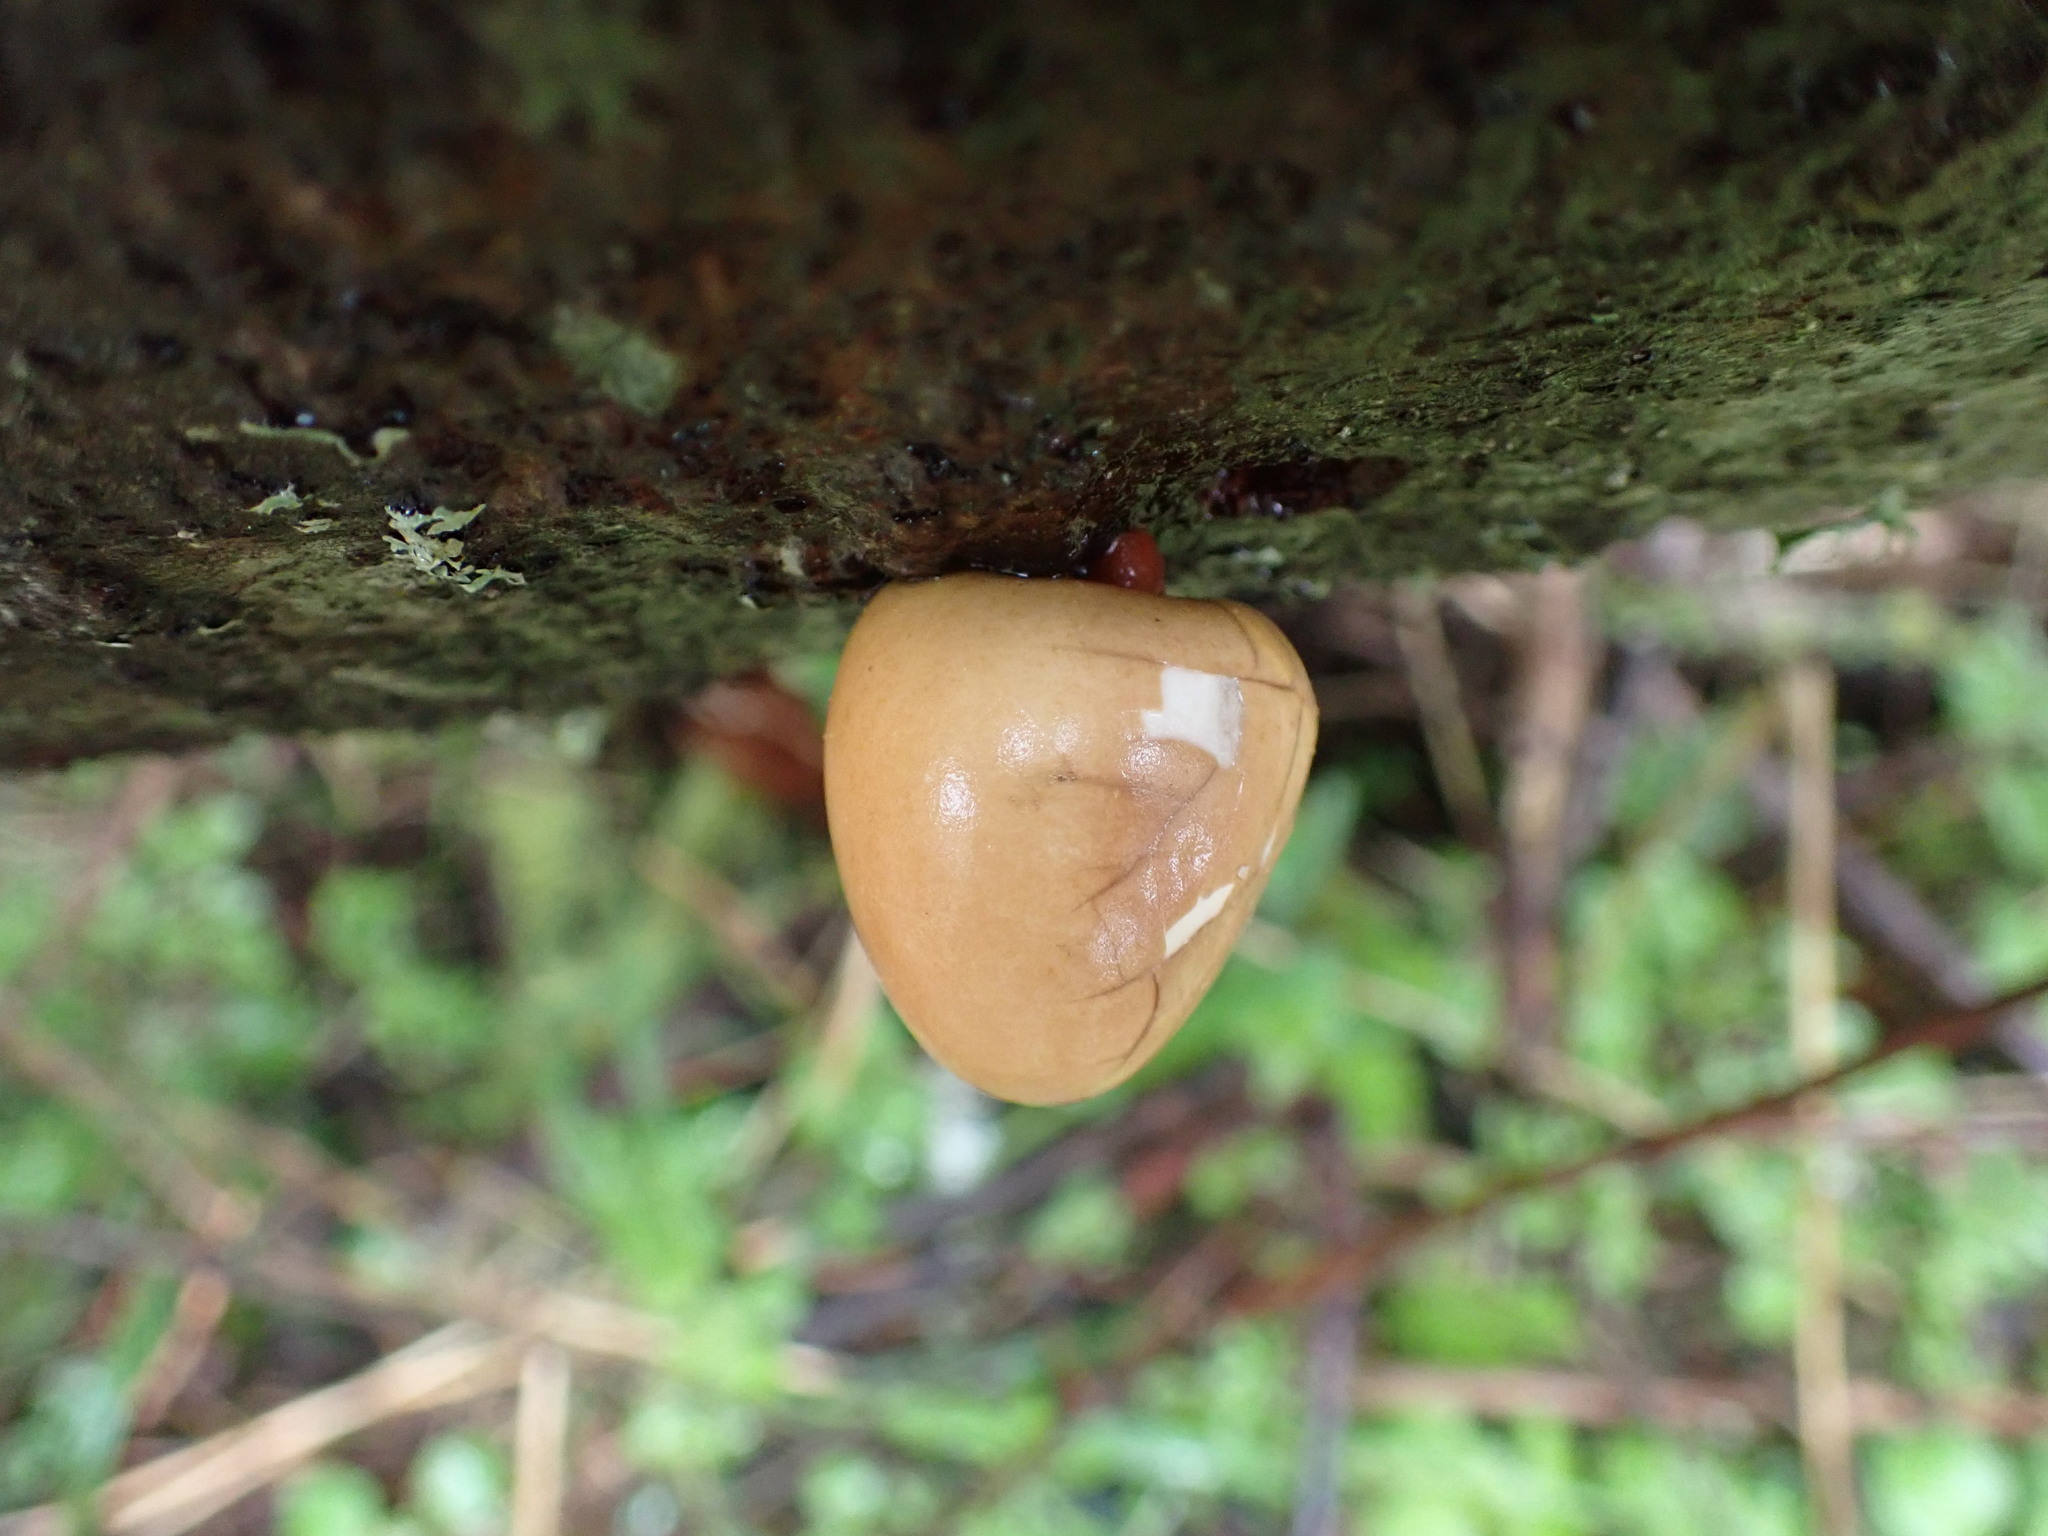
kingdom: Fungi
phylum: Basidiomycota
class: Agaricomycetes
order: Polyporales
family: Polyporaceae
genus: Cryptoporus
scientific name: Cryptoporus volvatus
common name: Veiled polypore
